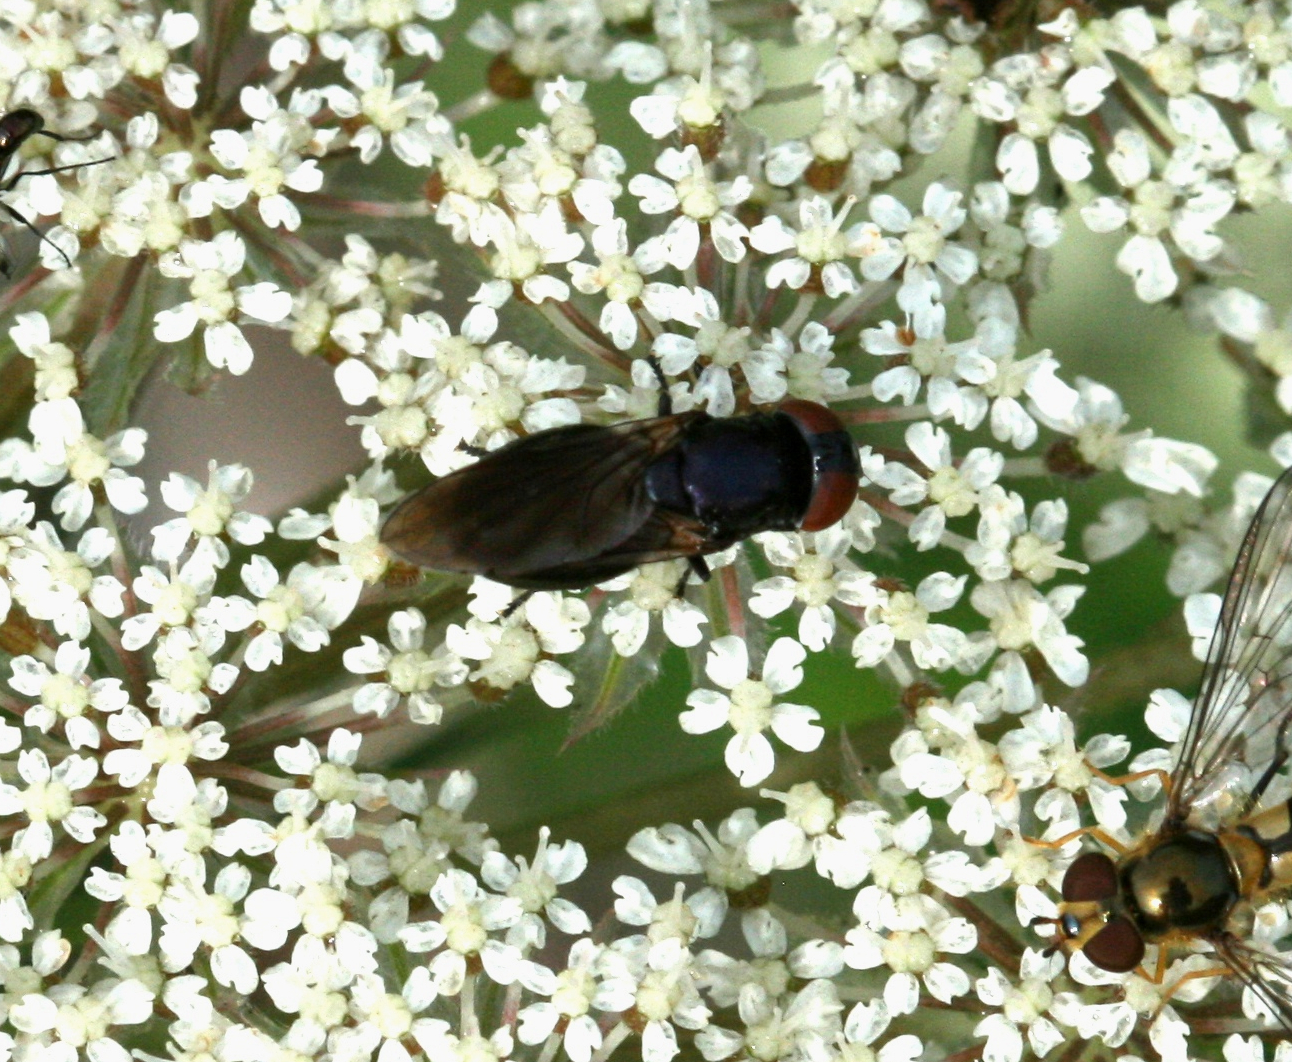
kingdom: Animalia
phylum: Arthropoda
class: Insecta
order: Diptera
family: Syrphidae
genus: Chrysogaster
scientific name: Chrysogaster solstitialis
